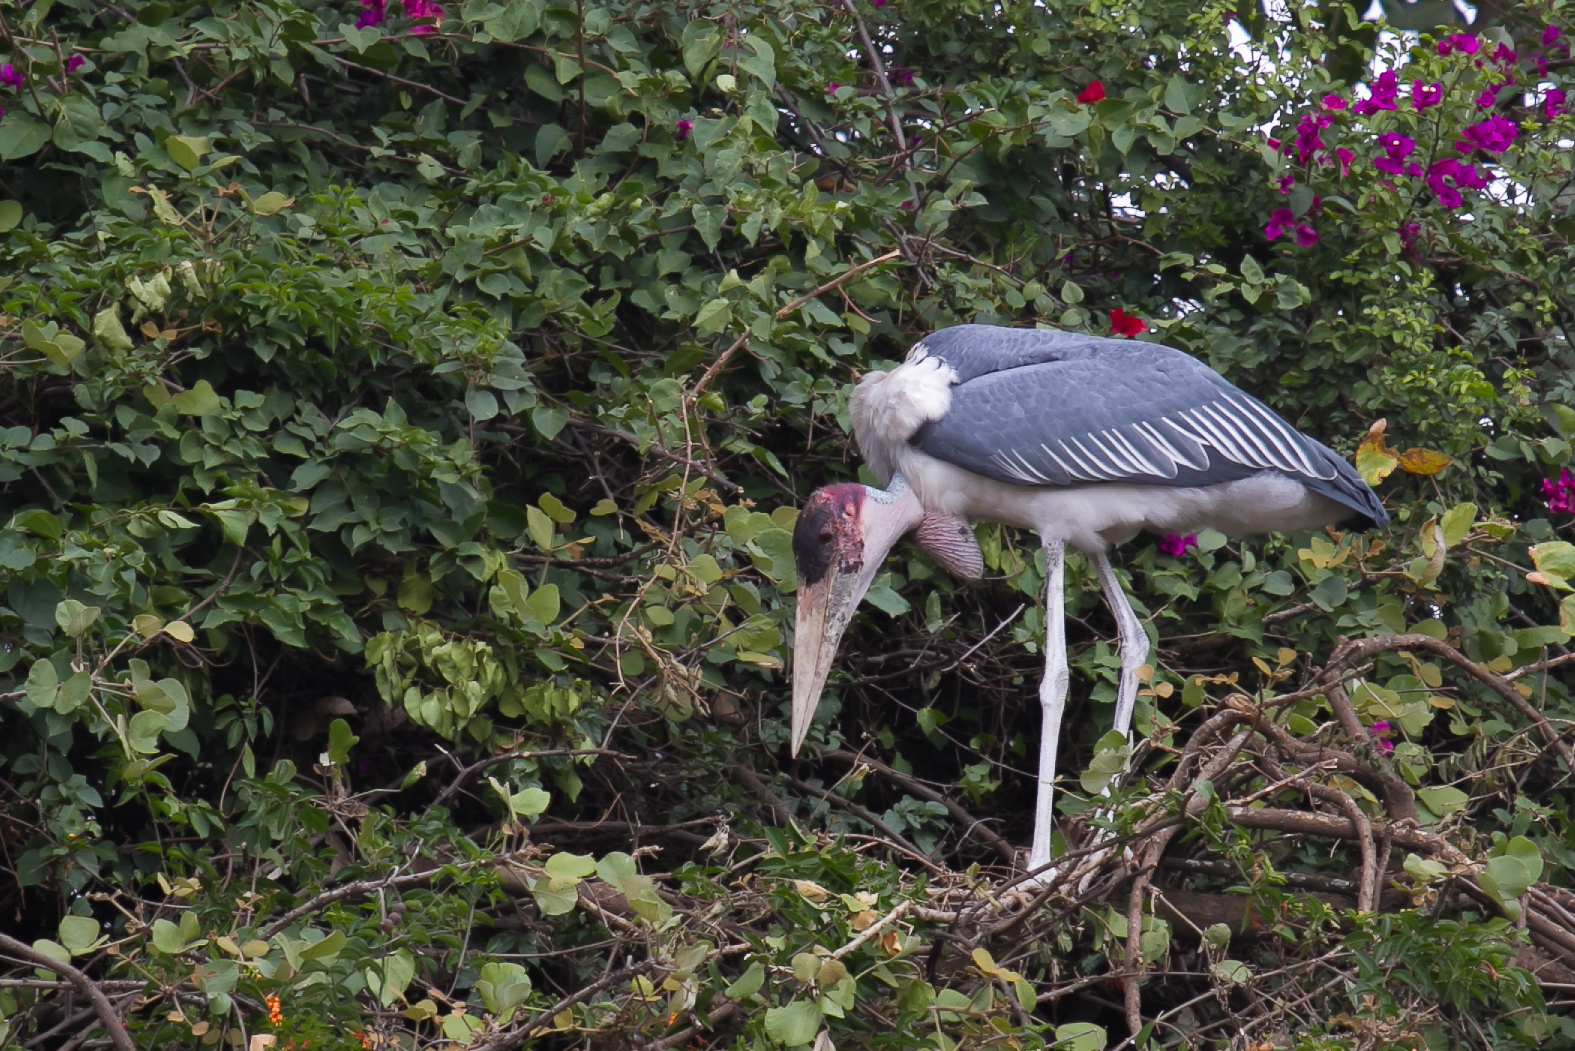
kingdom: Animalia
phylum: Chordata
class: Aves
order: Ciconiiformes
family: Ciconiidae
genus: Leptoptilos
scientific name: Leptoptilos crumenifer
